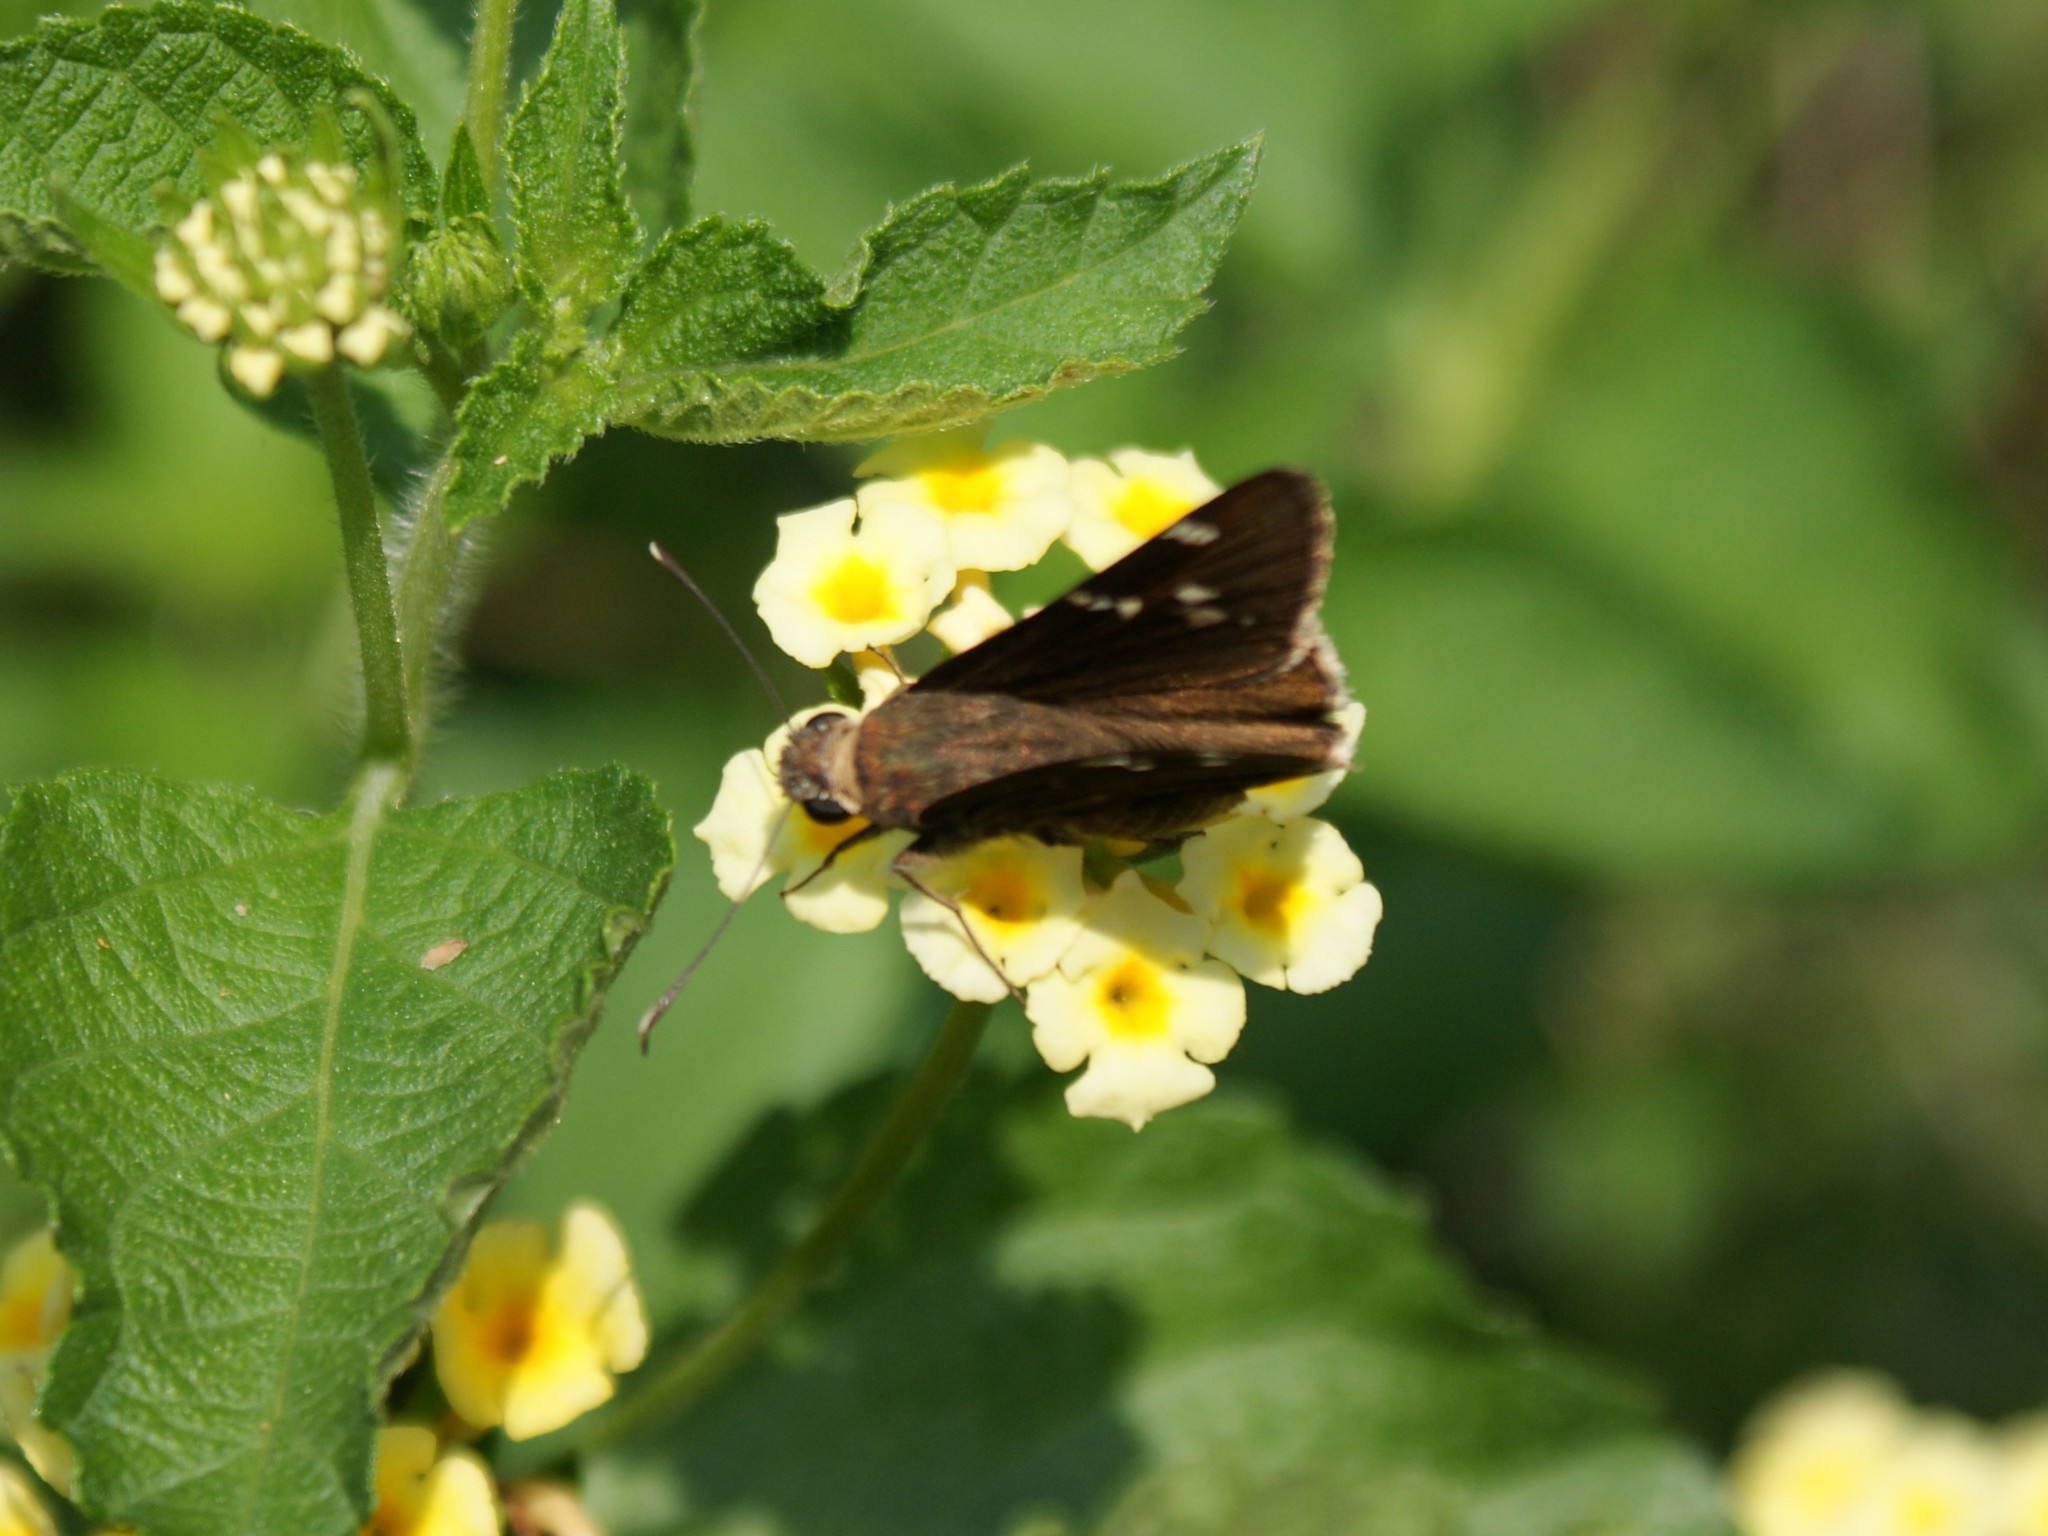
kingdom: Animalia
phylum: Arthropoda
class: Insecta
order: Lepidoptera
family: Hesperiidae
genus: Thorybes
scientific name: Thorybes daunus
